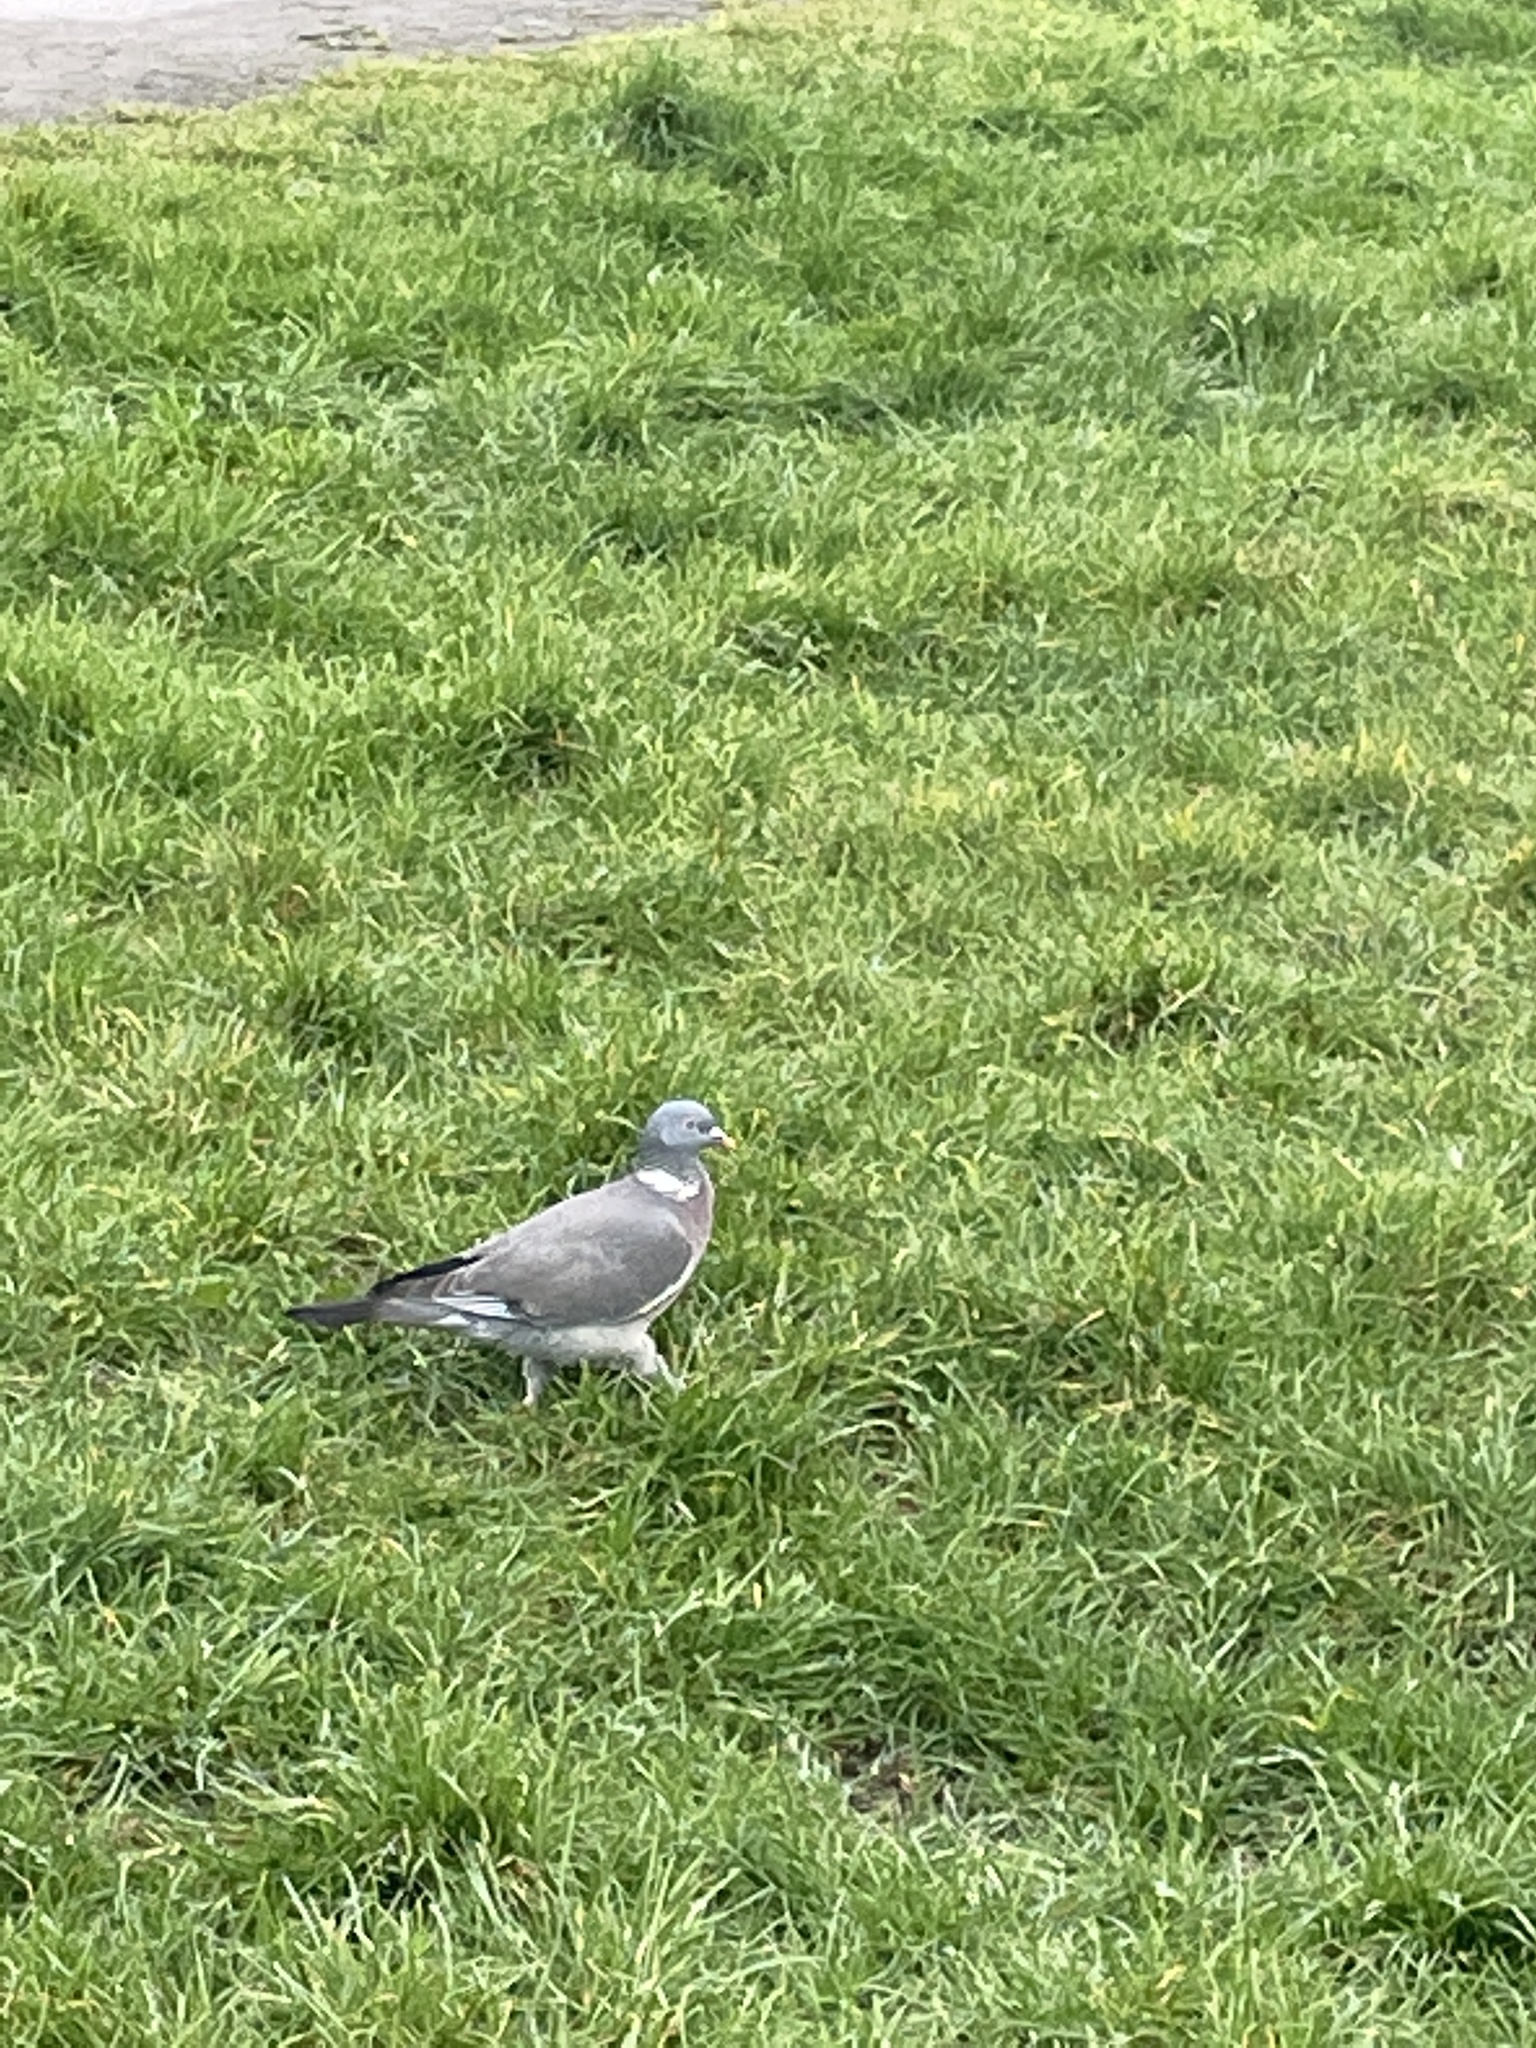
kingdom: Animalia
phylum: Chordata
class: Aves
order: Columbiformes
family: Columbidae
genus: Columba
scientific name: Columba palumbus
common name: Common wood pigeon
